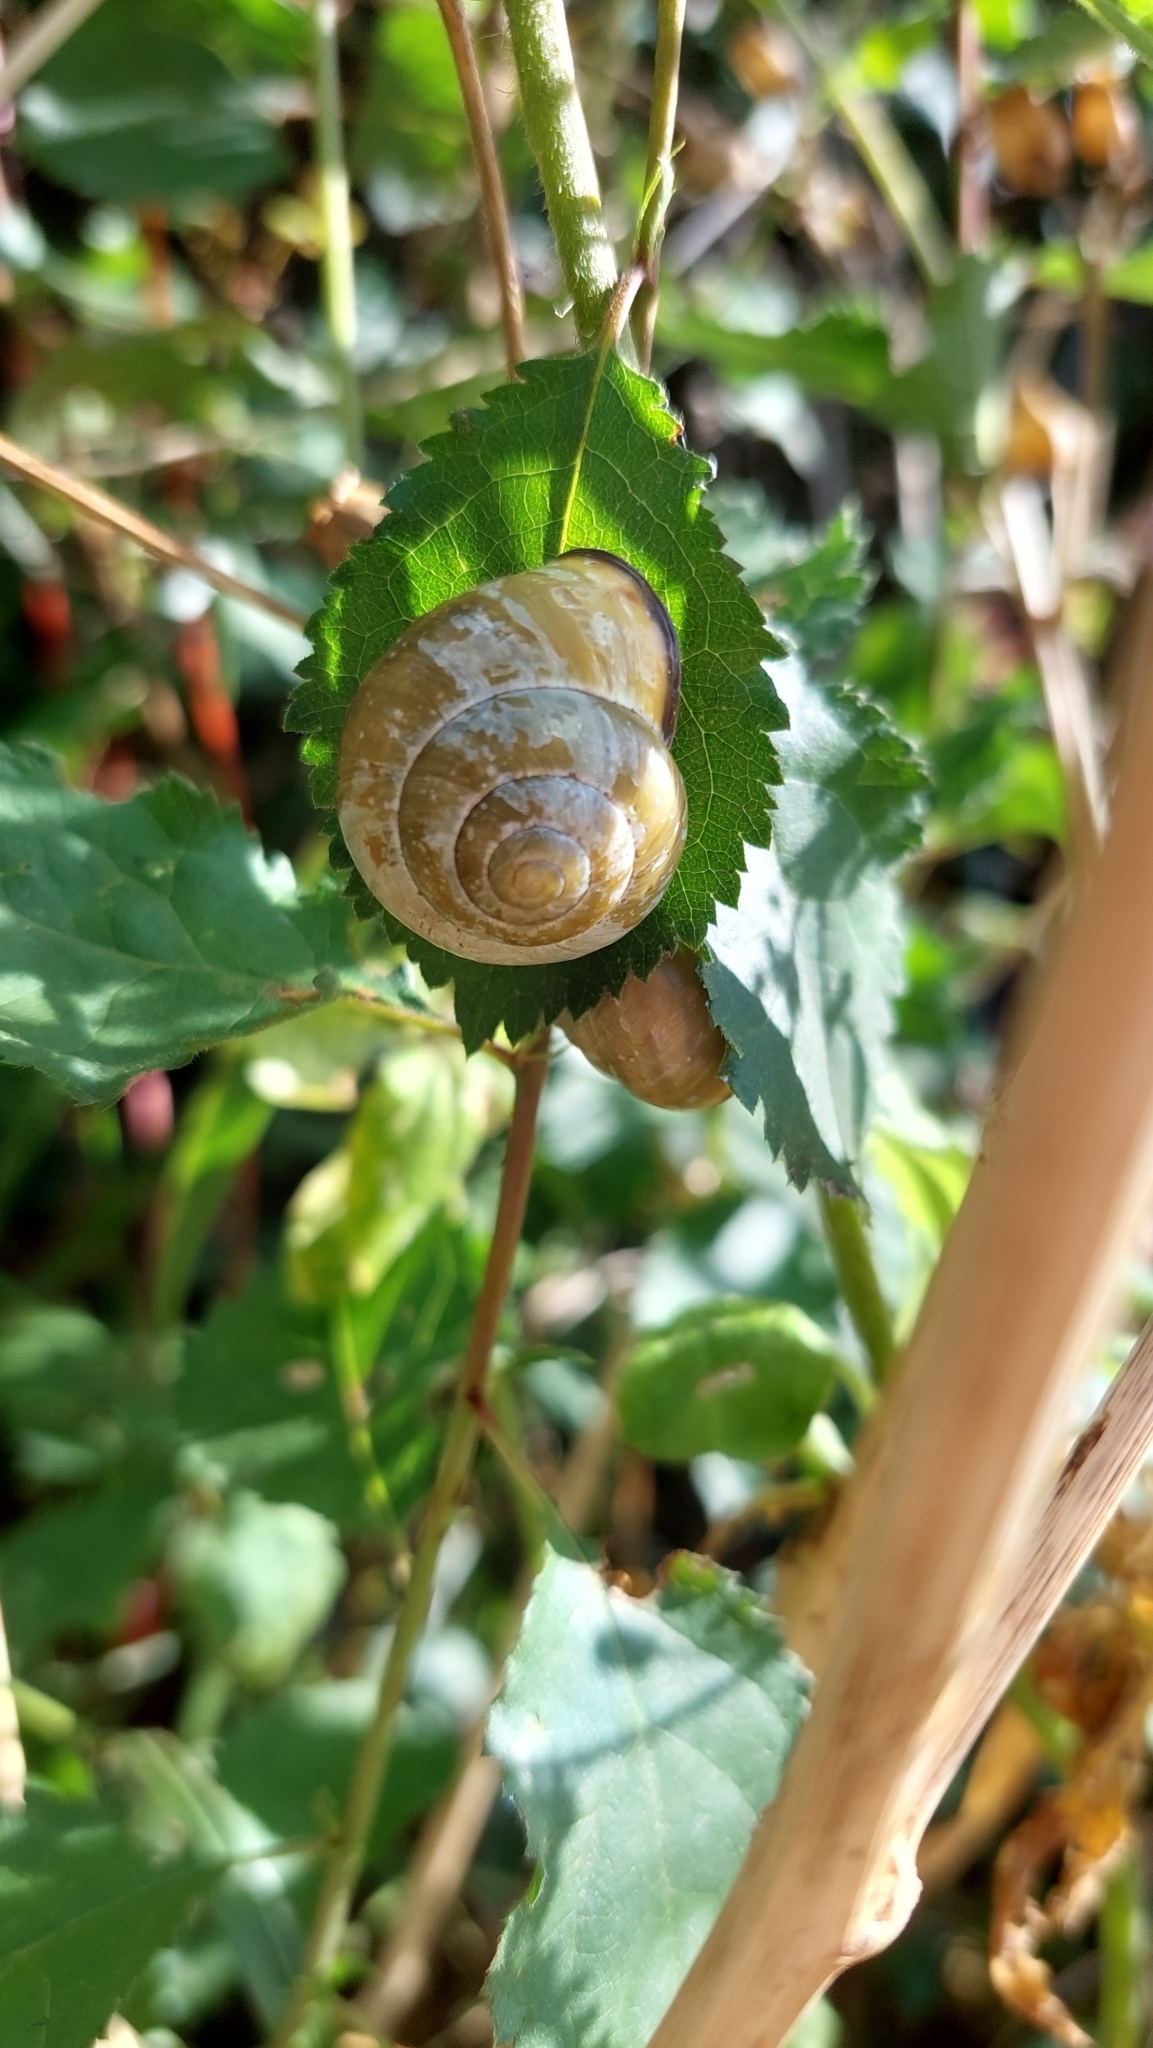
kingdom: Animalia
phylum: Mollusca
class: Gastropoda
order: Stylommatophora
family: Helicidae
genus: Cepaea
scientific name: Cepaea nemoralis
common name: Grovesnail
